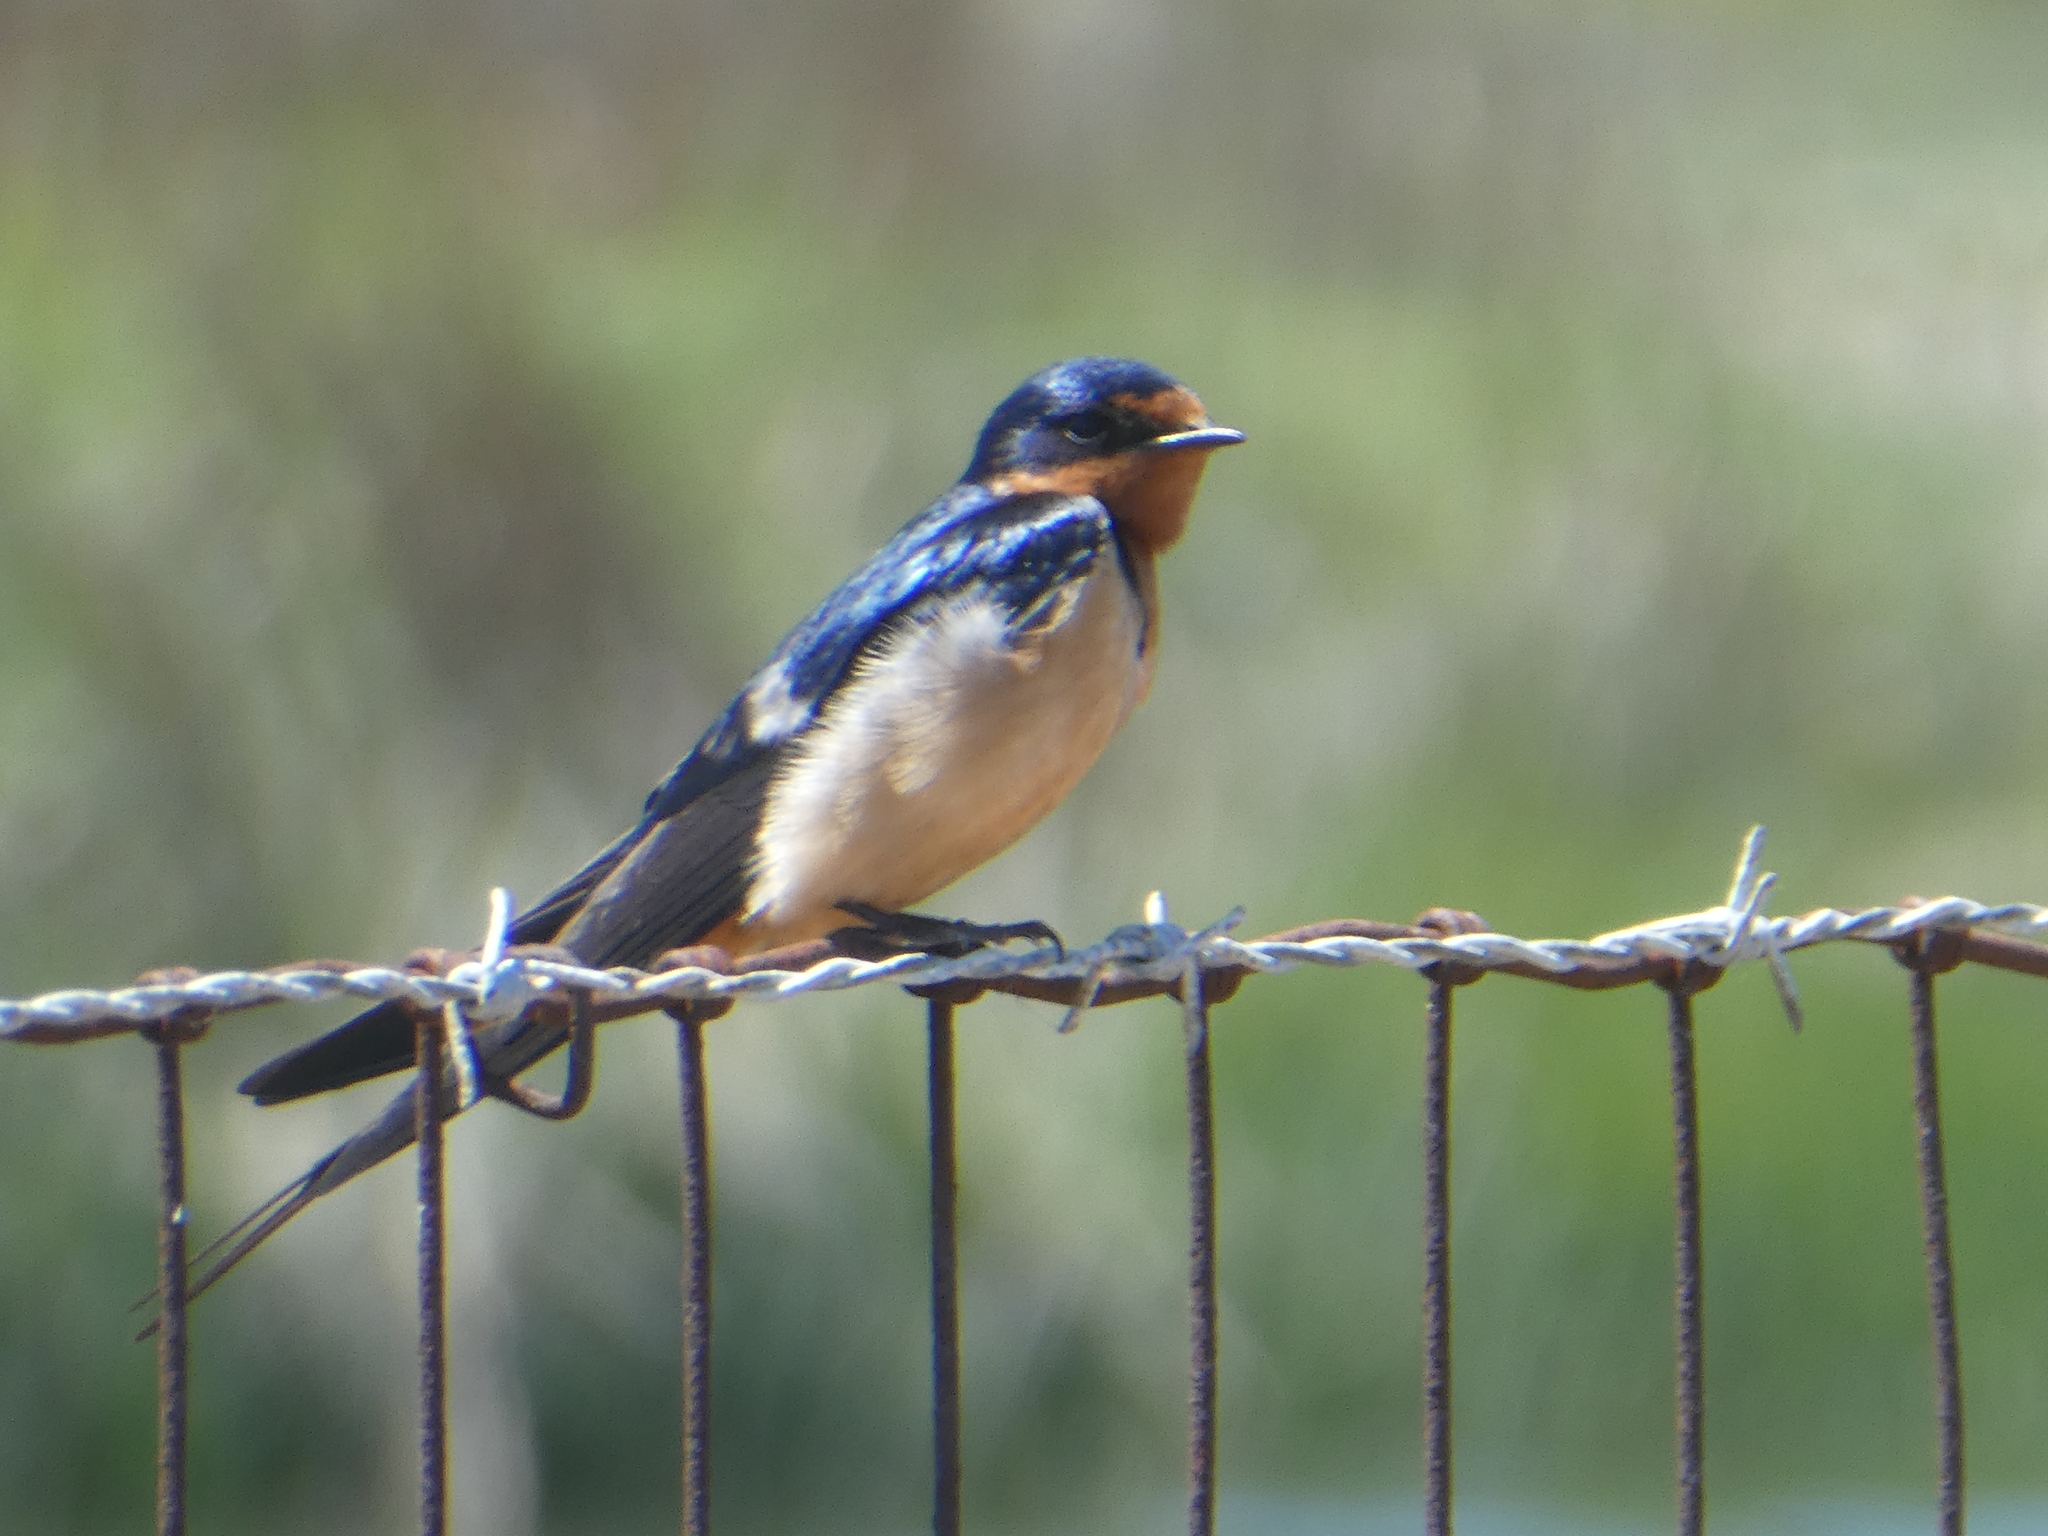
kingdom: Animalia
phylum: Chordata
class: Aves
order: Passeriformes
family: Hirundinidae
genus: Hirundo
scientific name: Hirundo rustica
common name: Barn swallow
